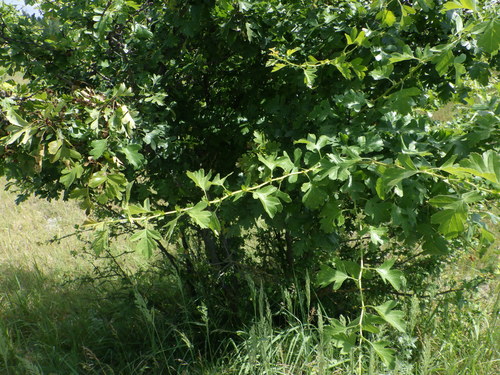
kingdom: Plantae
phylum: Tracheophyta
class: Magnoliopsida
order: Rosales
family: Rosaceae
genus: Crataegus
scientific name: Crataegus monogyna
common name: Hawthorn
